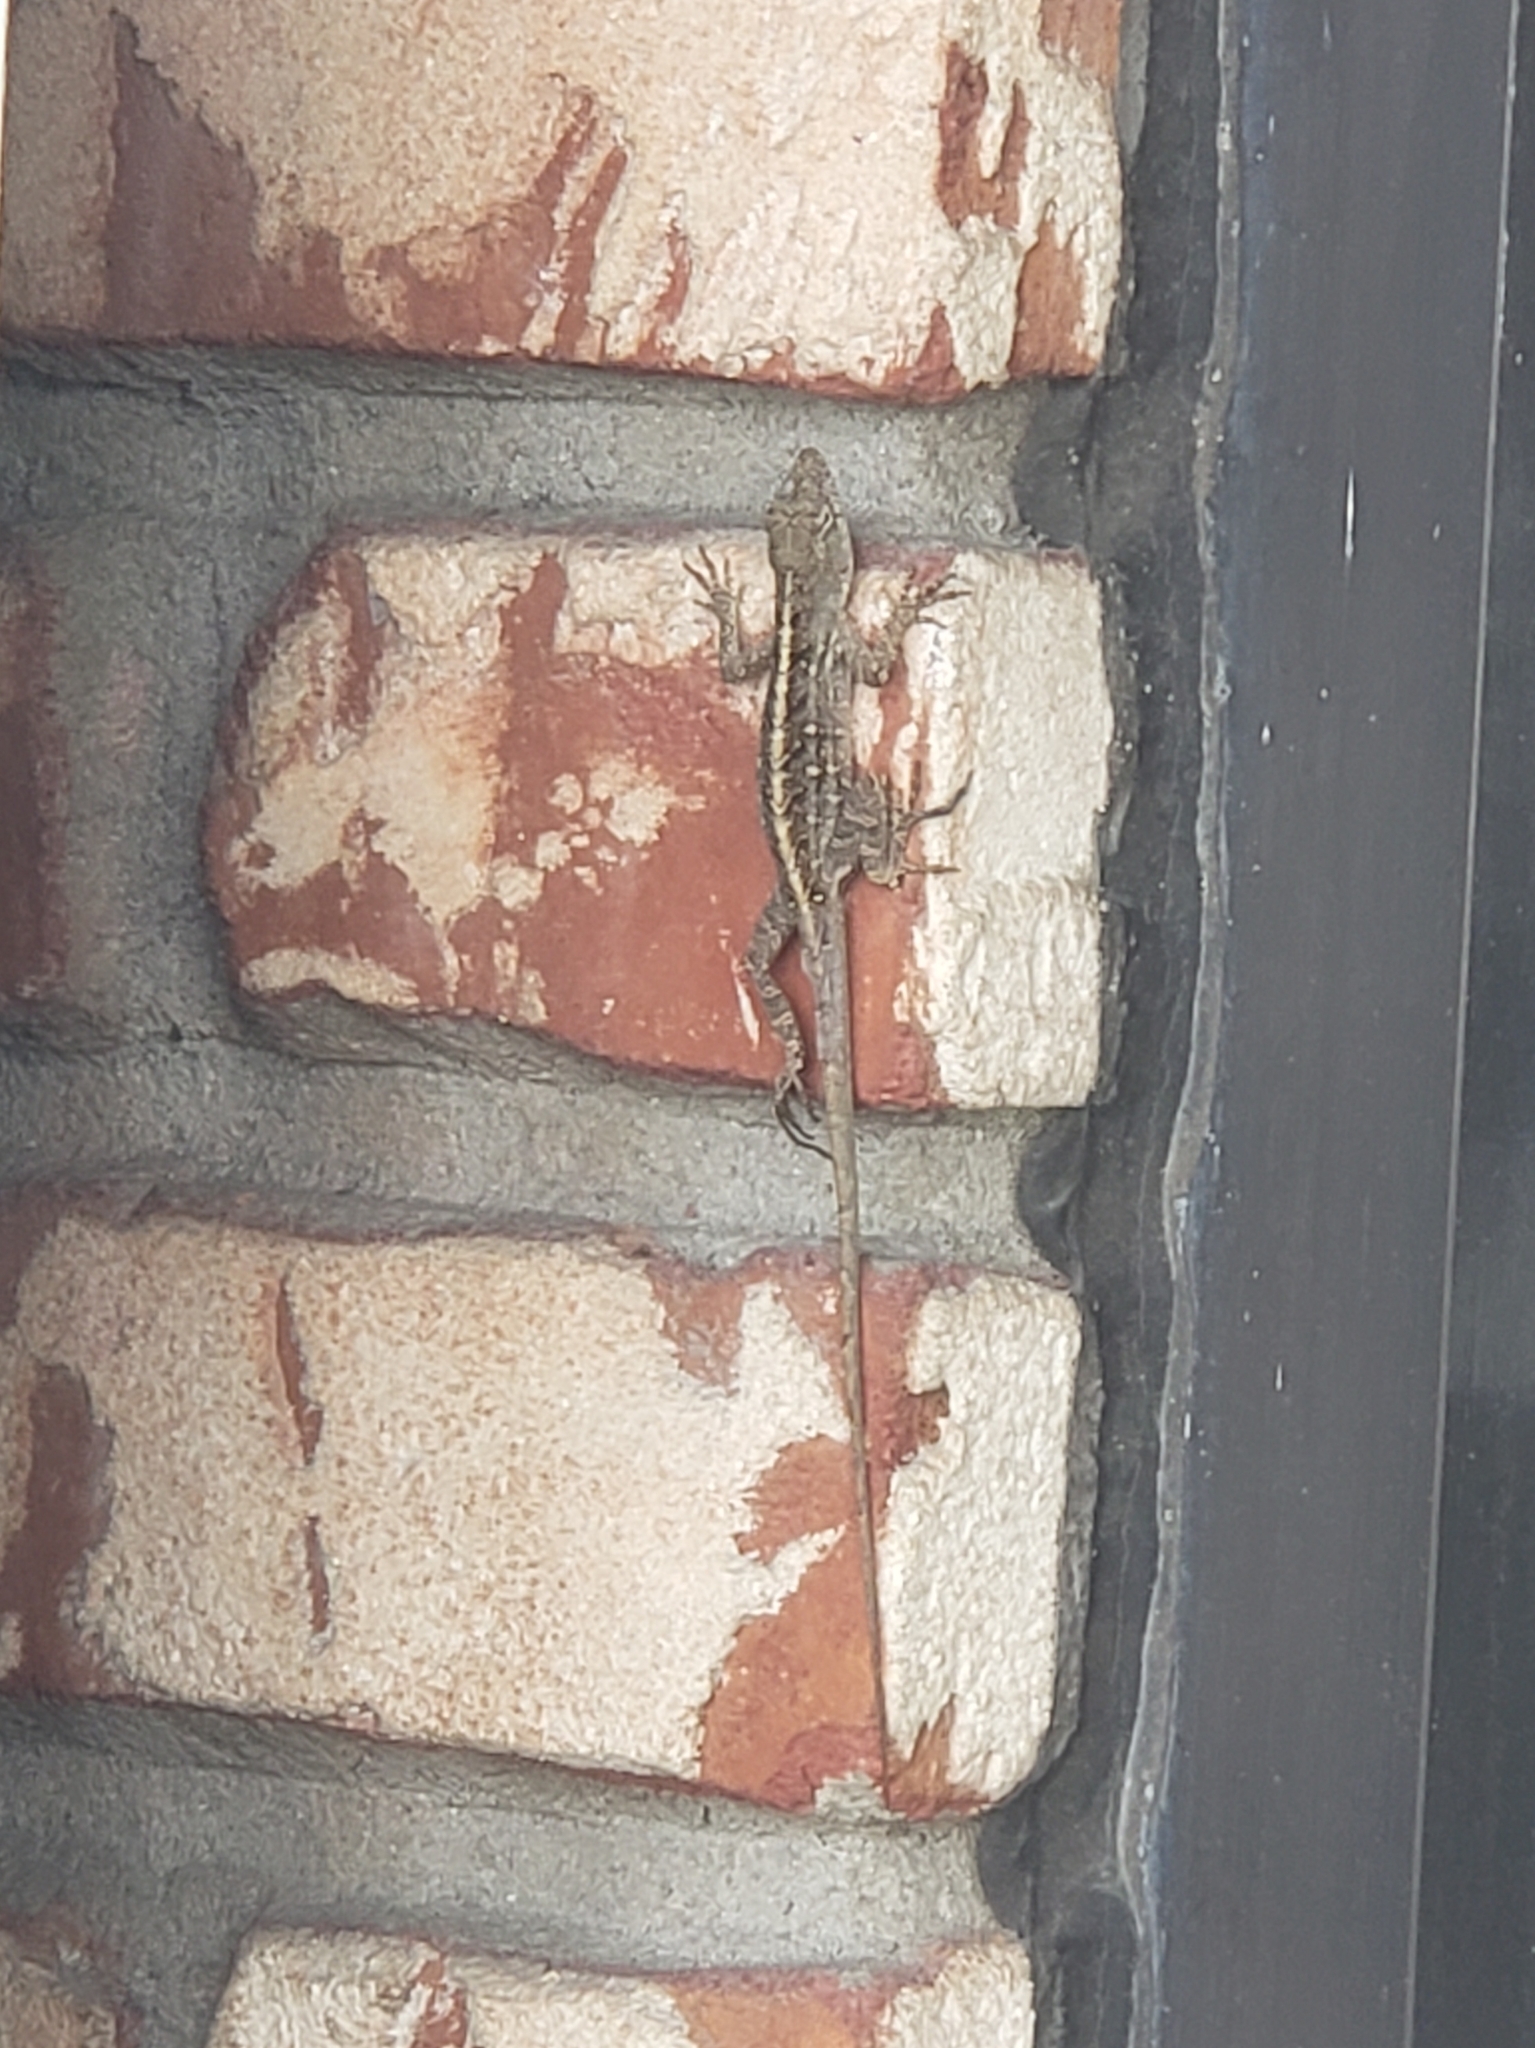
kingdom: Animalia
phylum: Chordata
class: Squamata
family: Dactyloidae
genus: Anolis
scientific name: Anolis sagrei
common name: Brown anole
